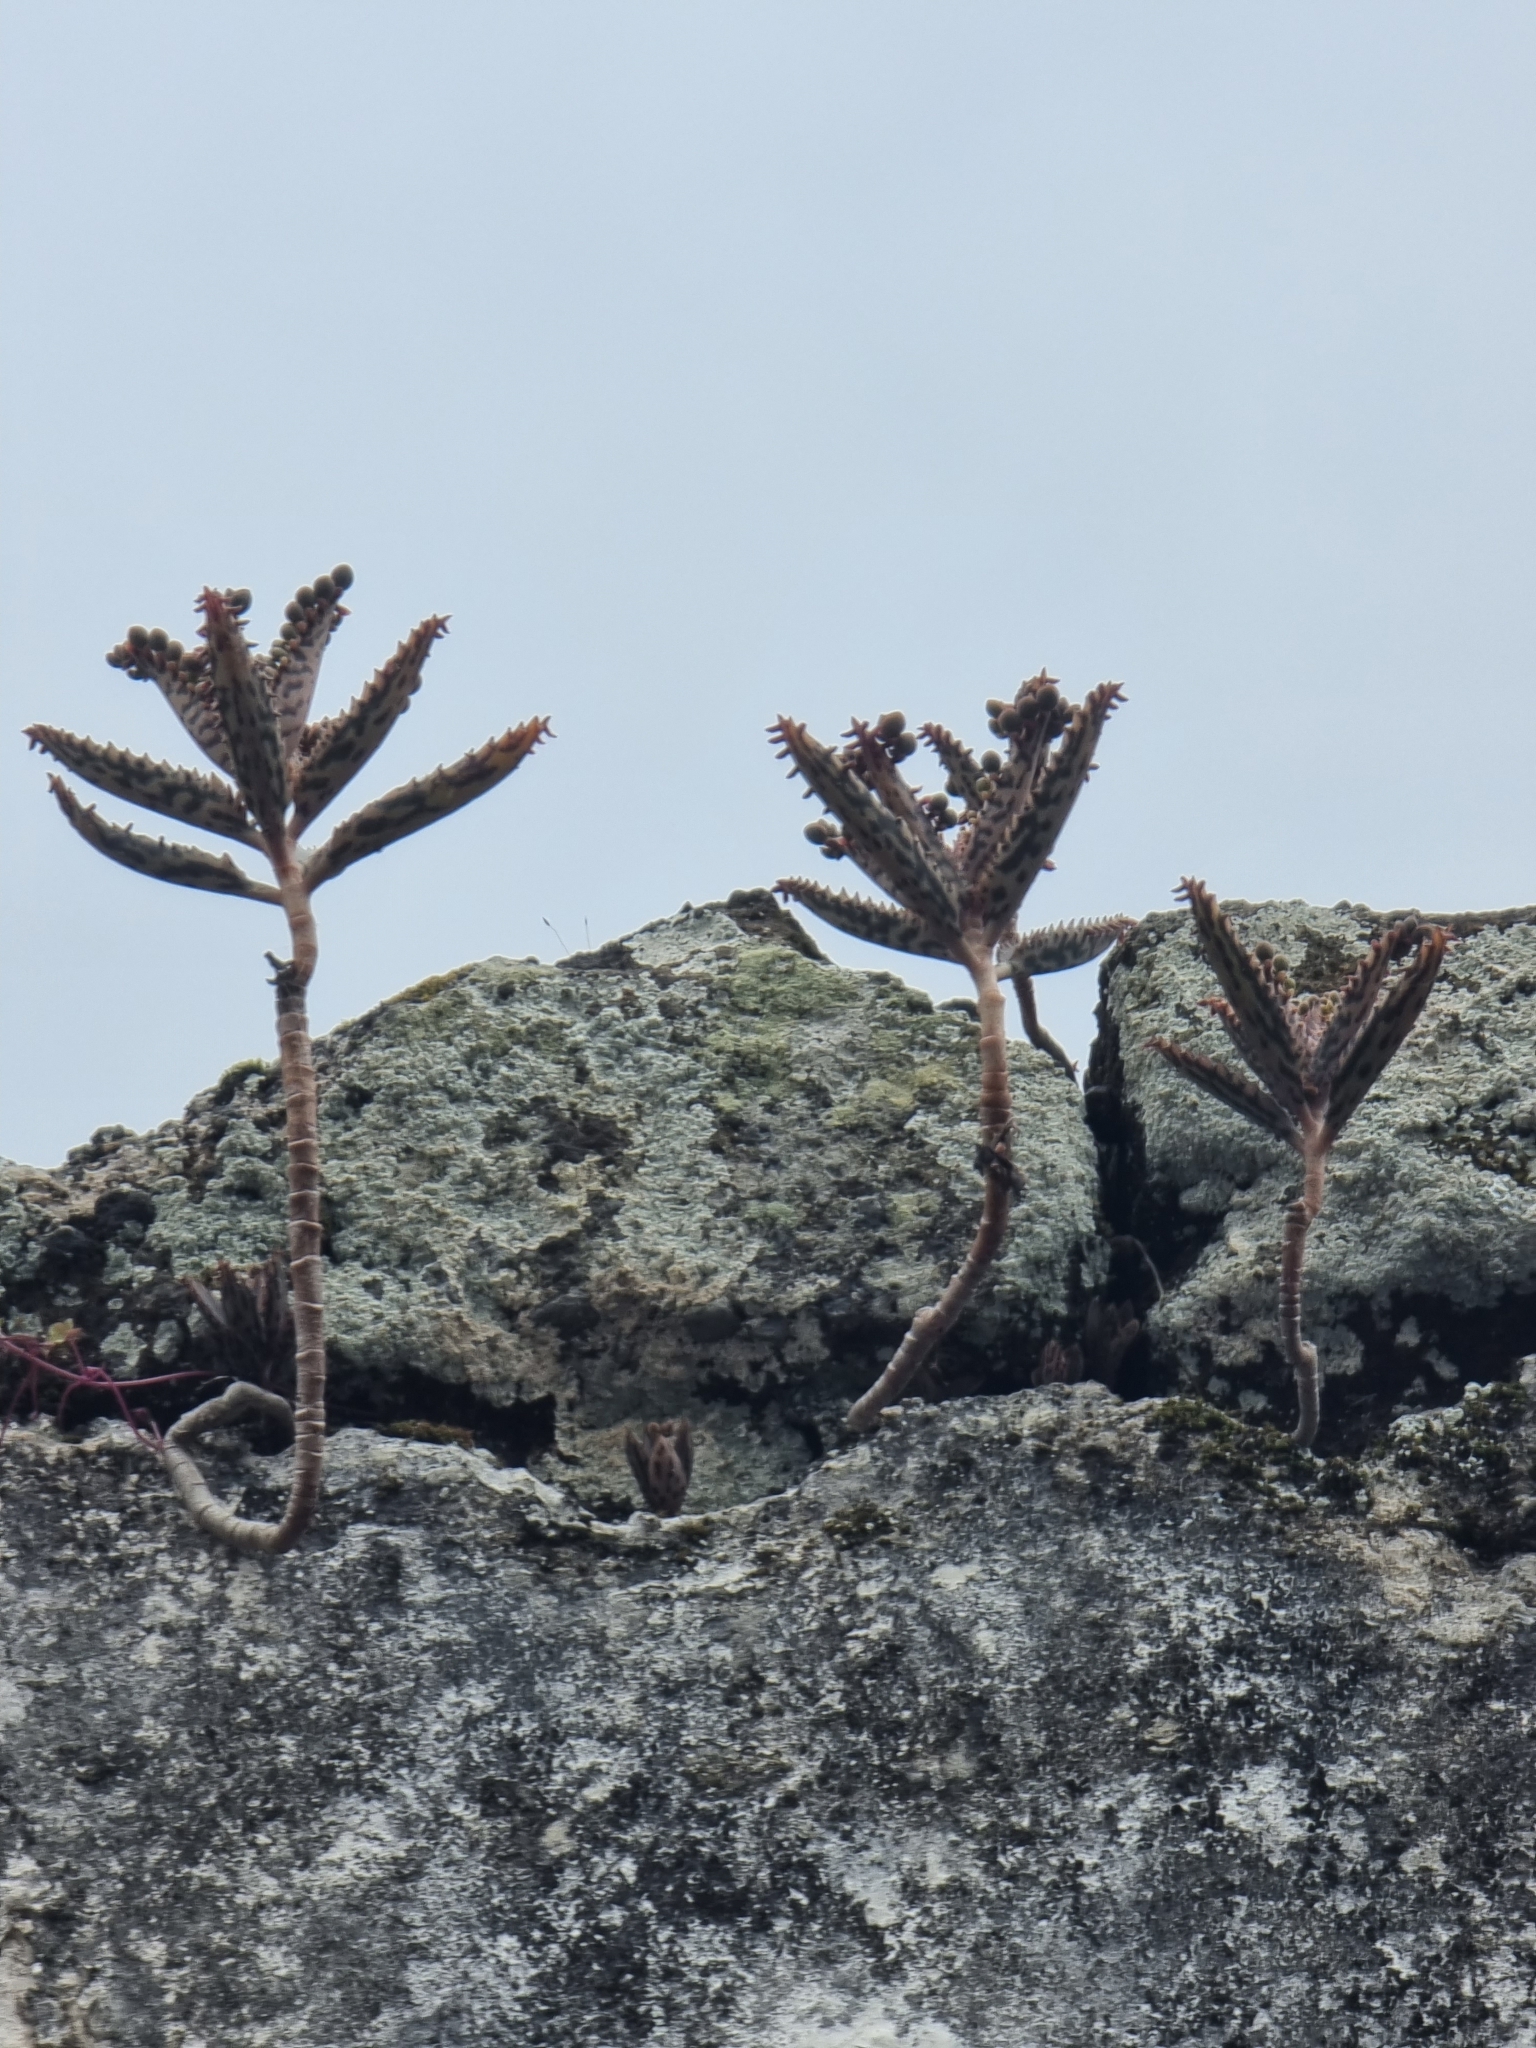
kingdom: Plantae
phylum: Tracheophyta
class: Magnoliopsida
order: Saxifragales
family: Crassulaceae
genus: Kalanchoe
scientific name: Kalanchoe houghtonii
